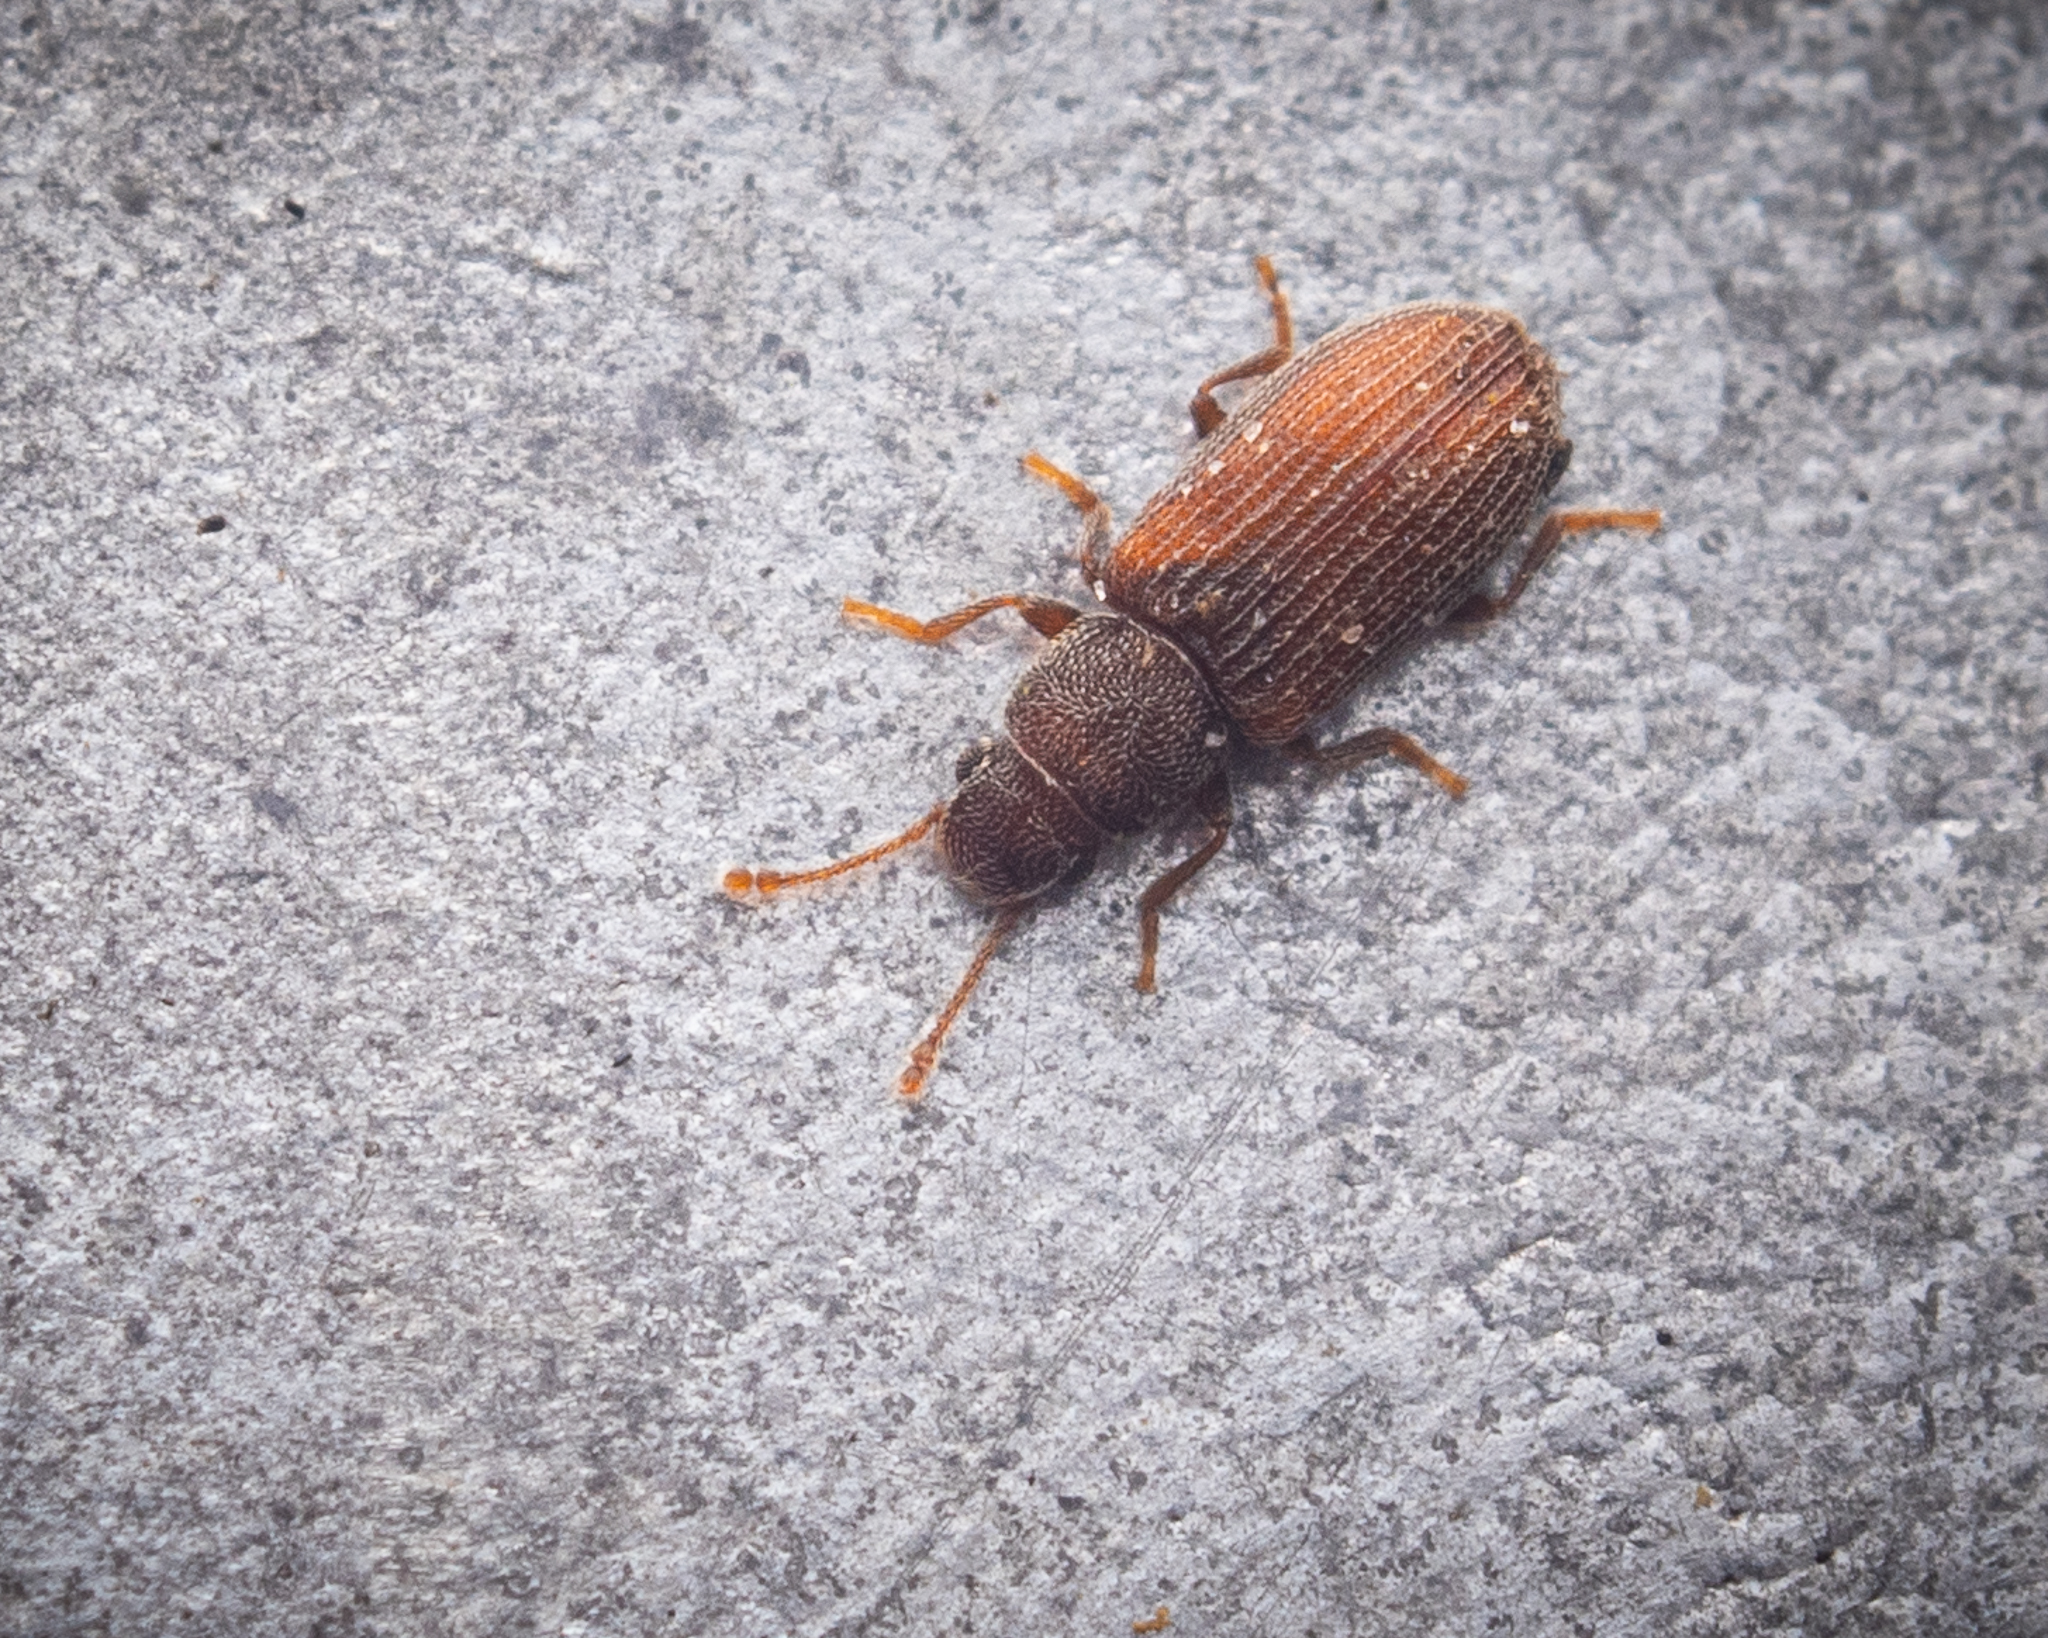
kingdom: Animalia
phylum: Arthropoda
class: Insecta
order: Coleoptera
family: Mycetophagidae
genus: Berginus
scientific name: Berginus tamarisci
